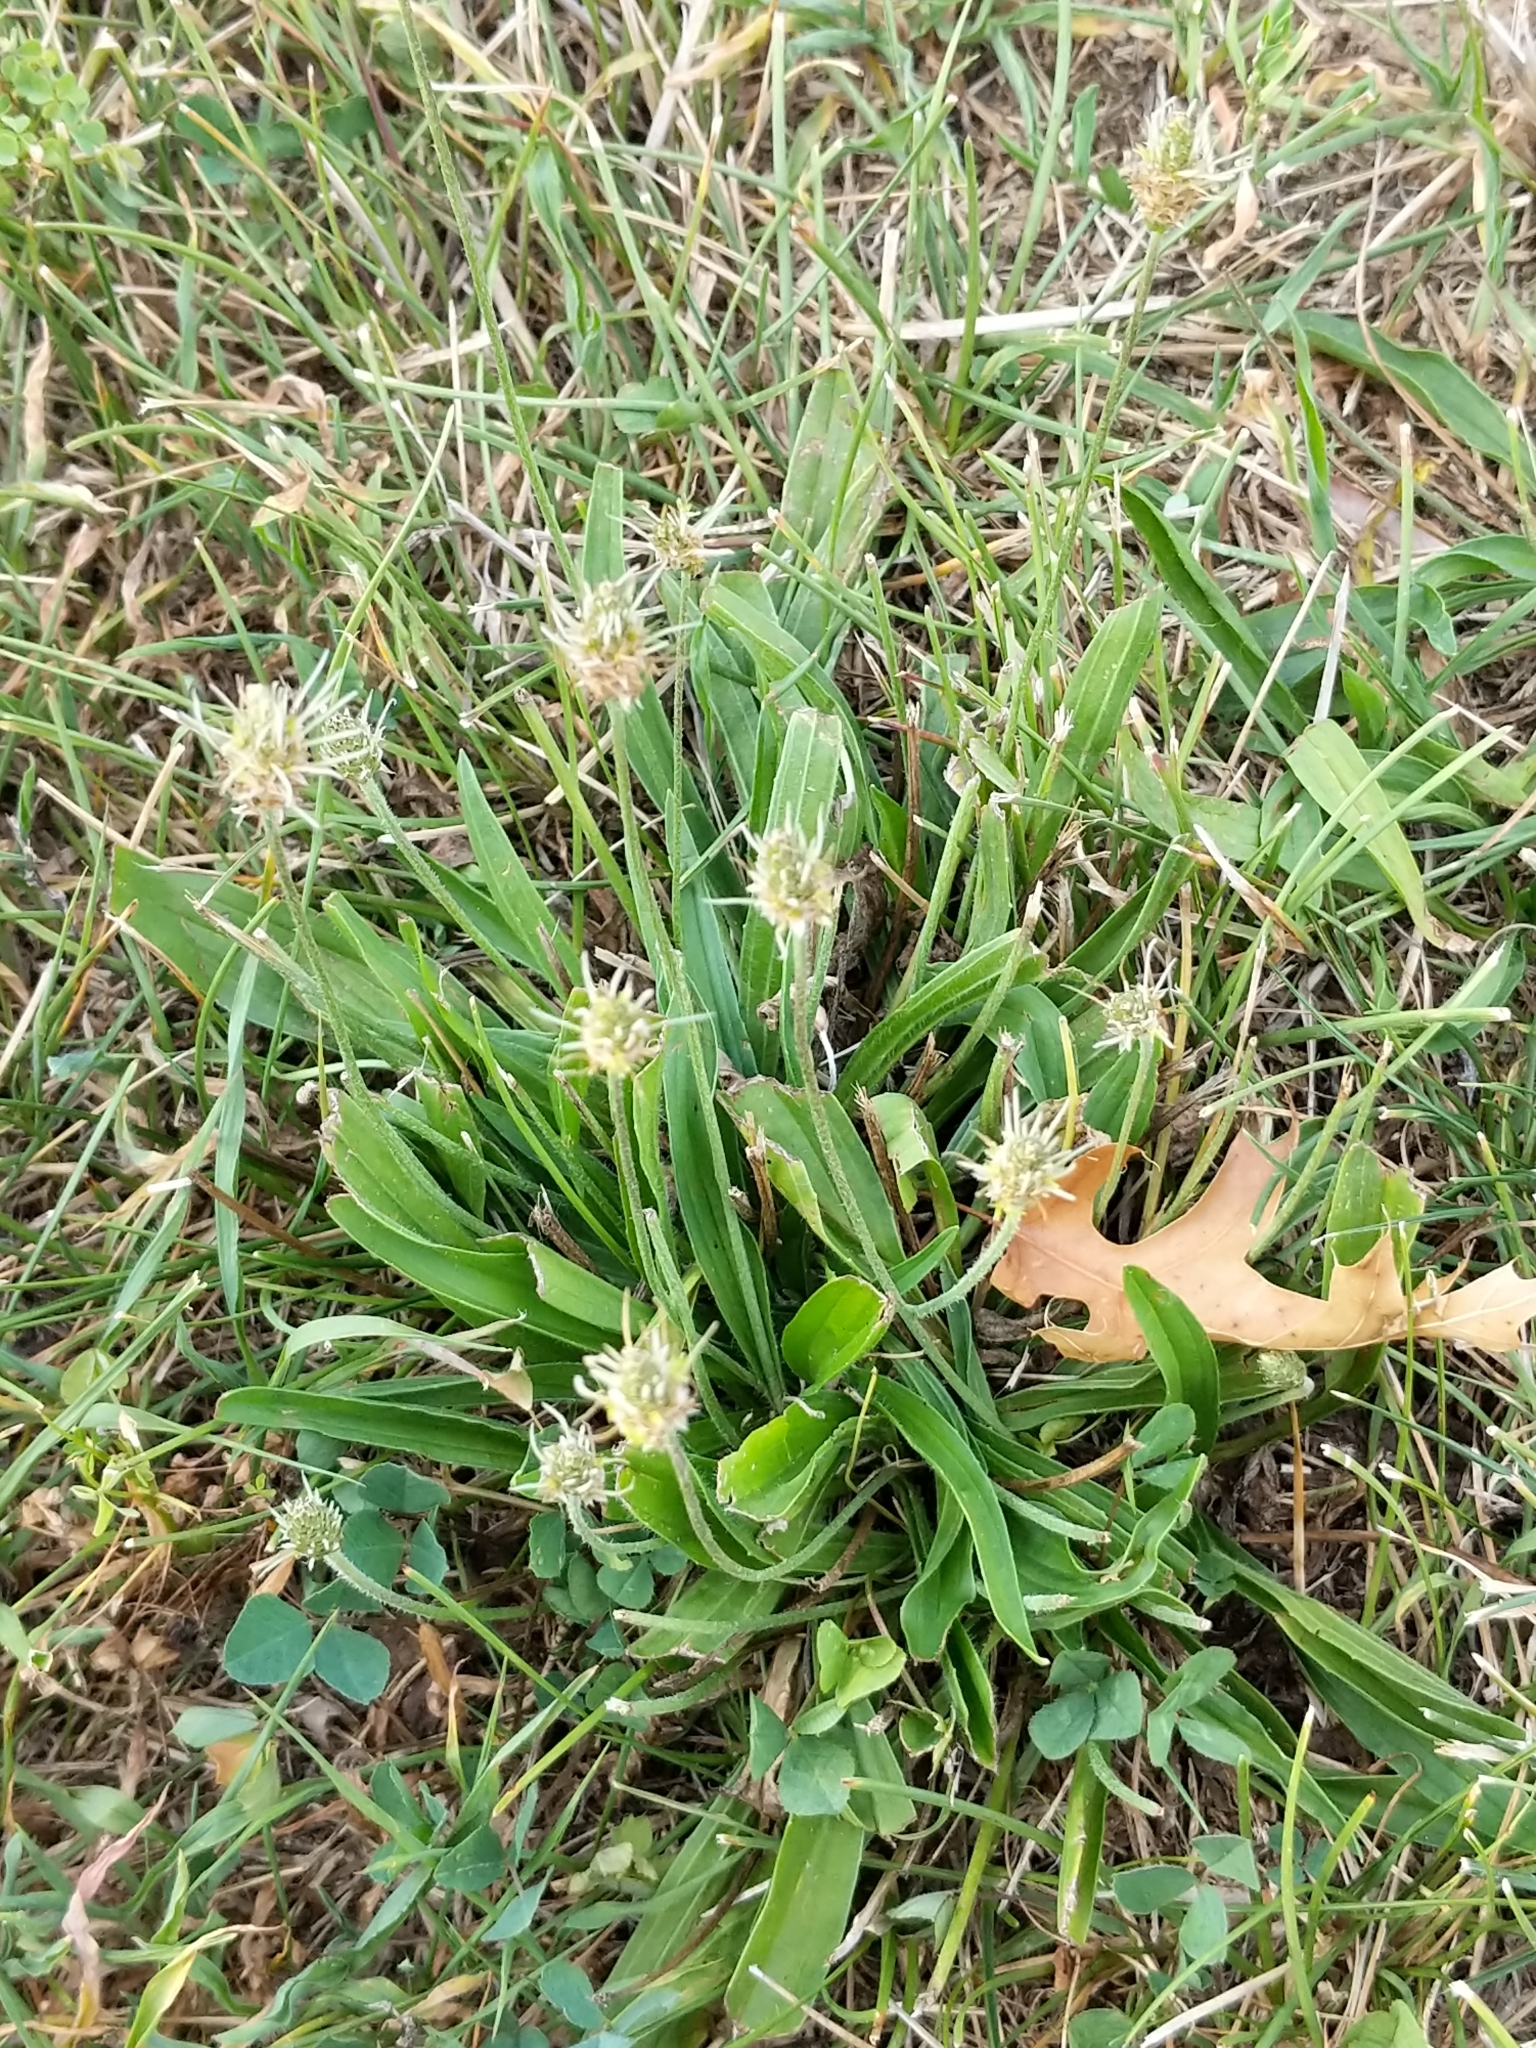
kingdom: Plantae
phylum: Tracheophyta
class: Magnoliopsida
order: Lamiales
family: Plantaginaceae
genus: Plantago
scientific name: Plantago lanceolata
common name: Ribwort plantain
